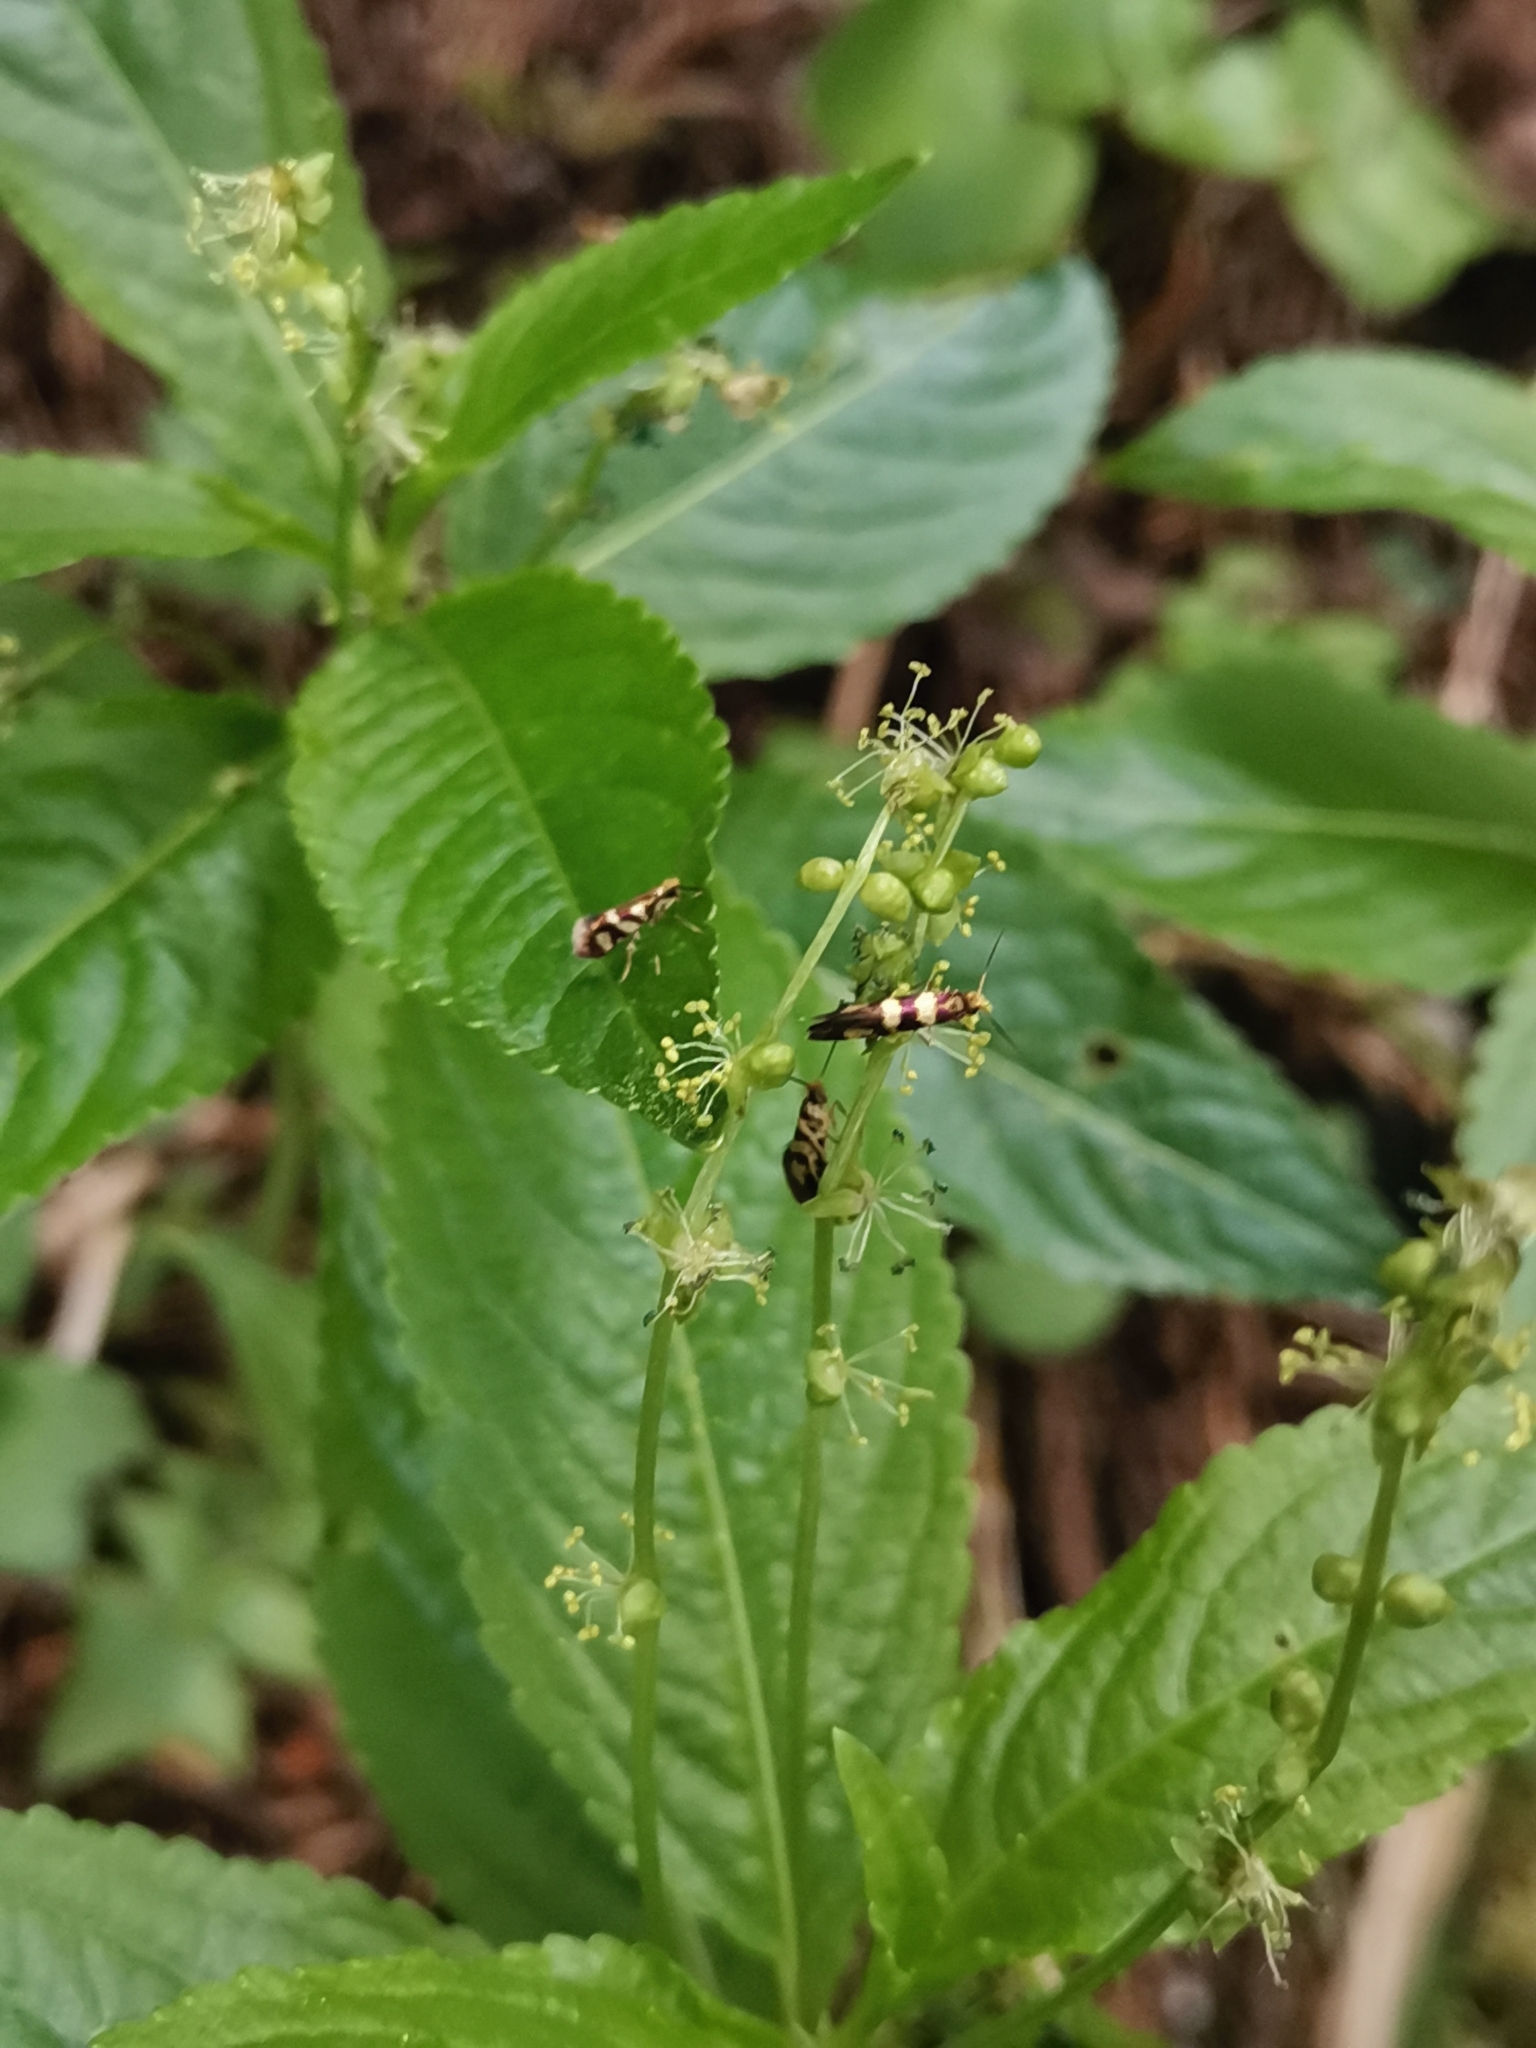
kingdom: Plantae
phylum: Tracheophyta
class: Magnoliopsida
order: Malpighiales
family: Euphorbiaceae
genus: Mercurialis
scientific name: Mercurialis perennis
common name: Dog mercury
